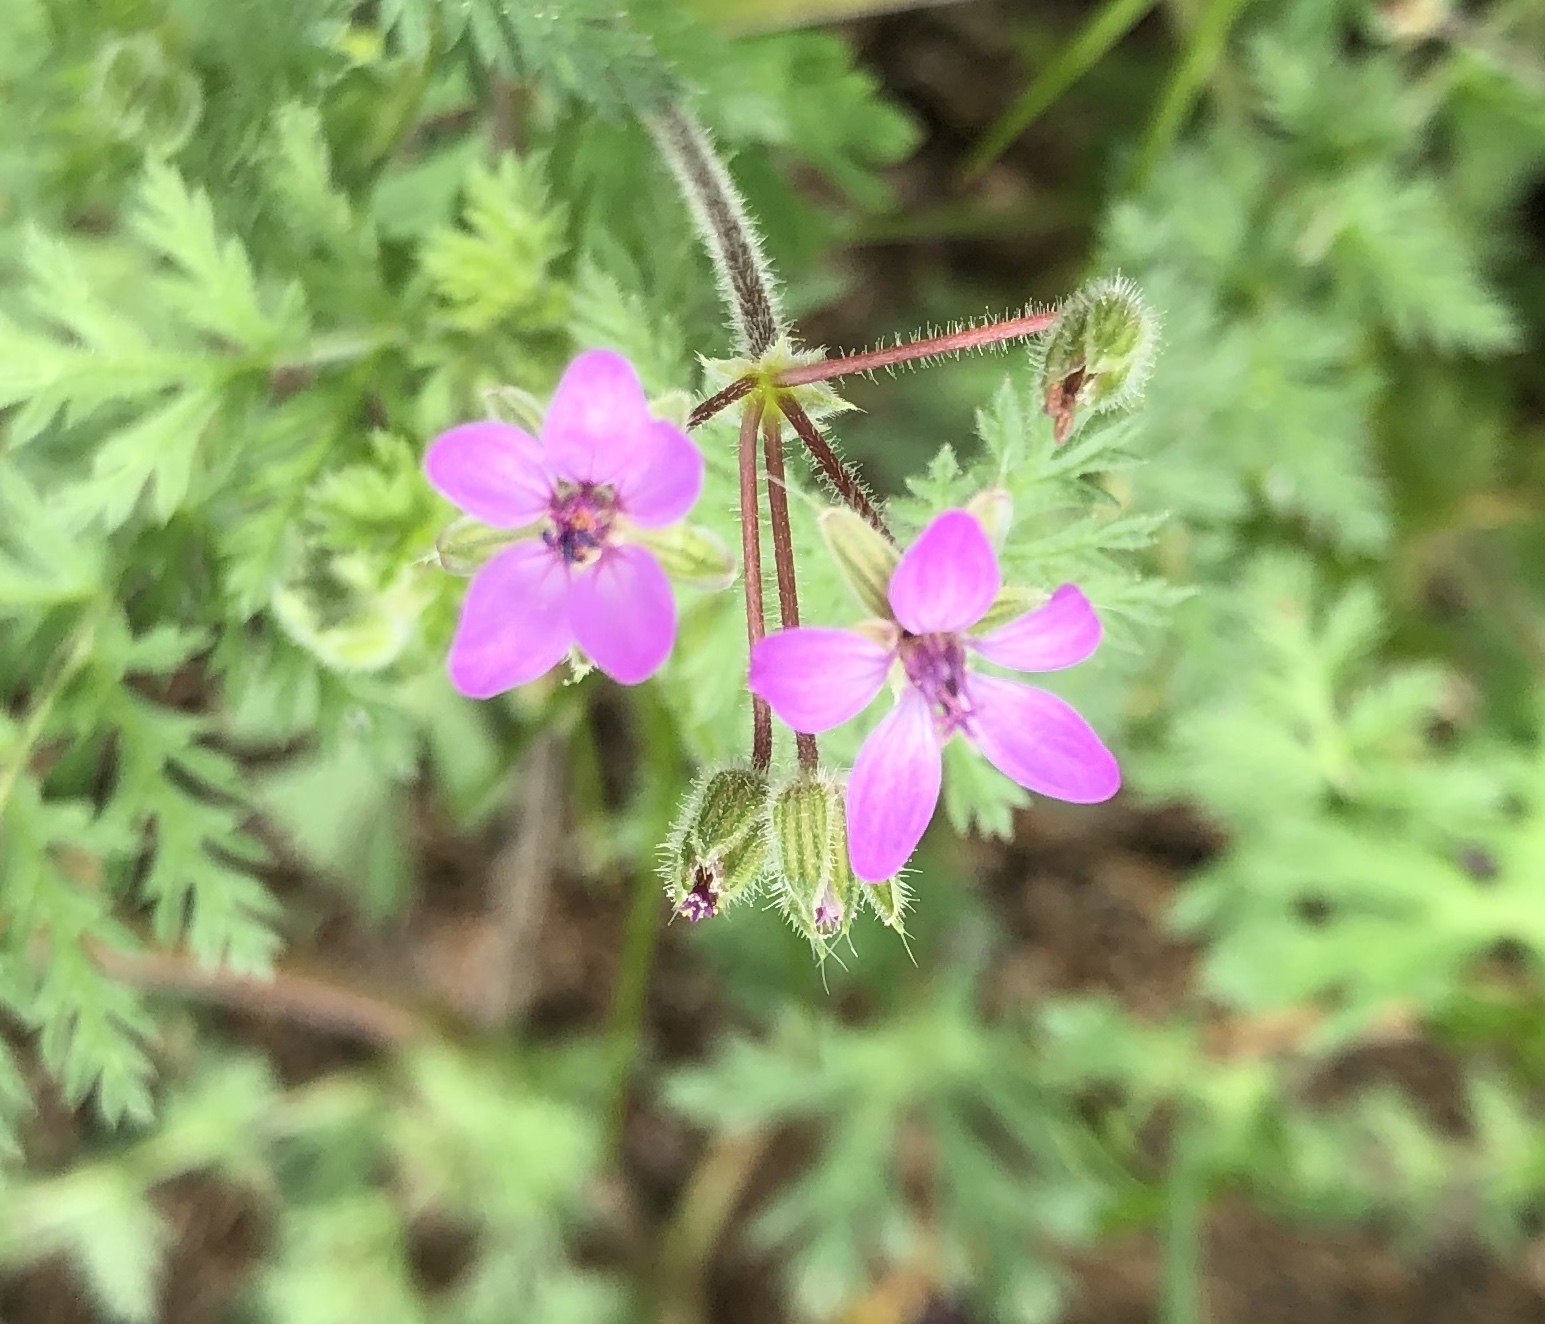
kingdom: Plantae
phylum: Tracheophyta
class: Magnoliopsida
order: Geraniales
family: Geraniaceae
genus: Erodium
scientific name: Erodium cicutarium
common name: Common stork's-bill
